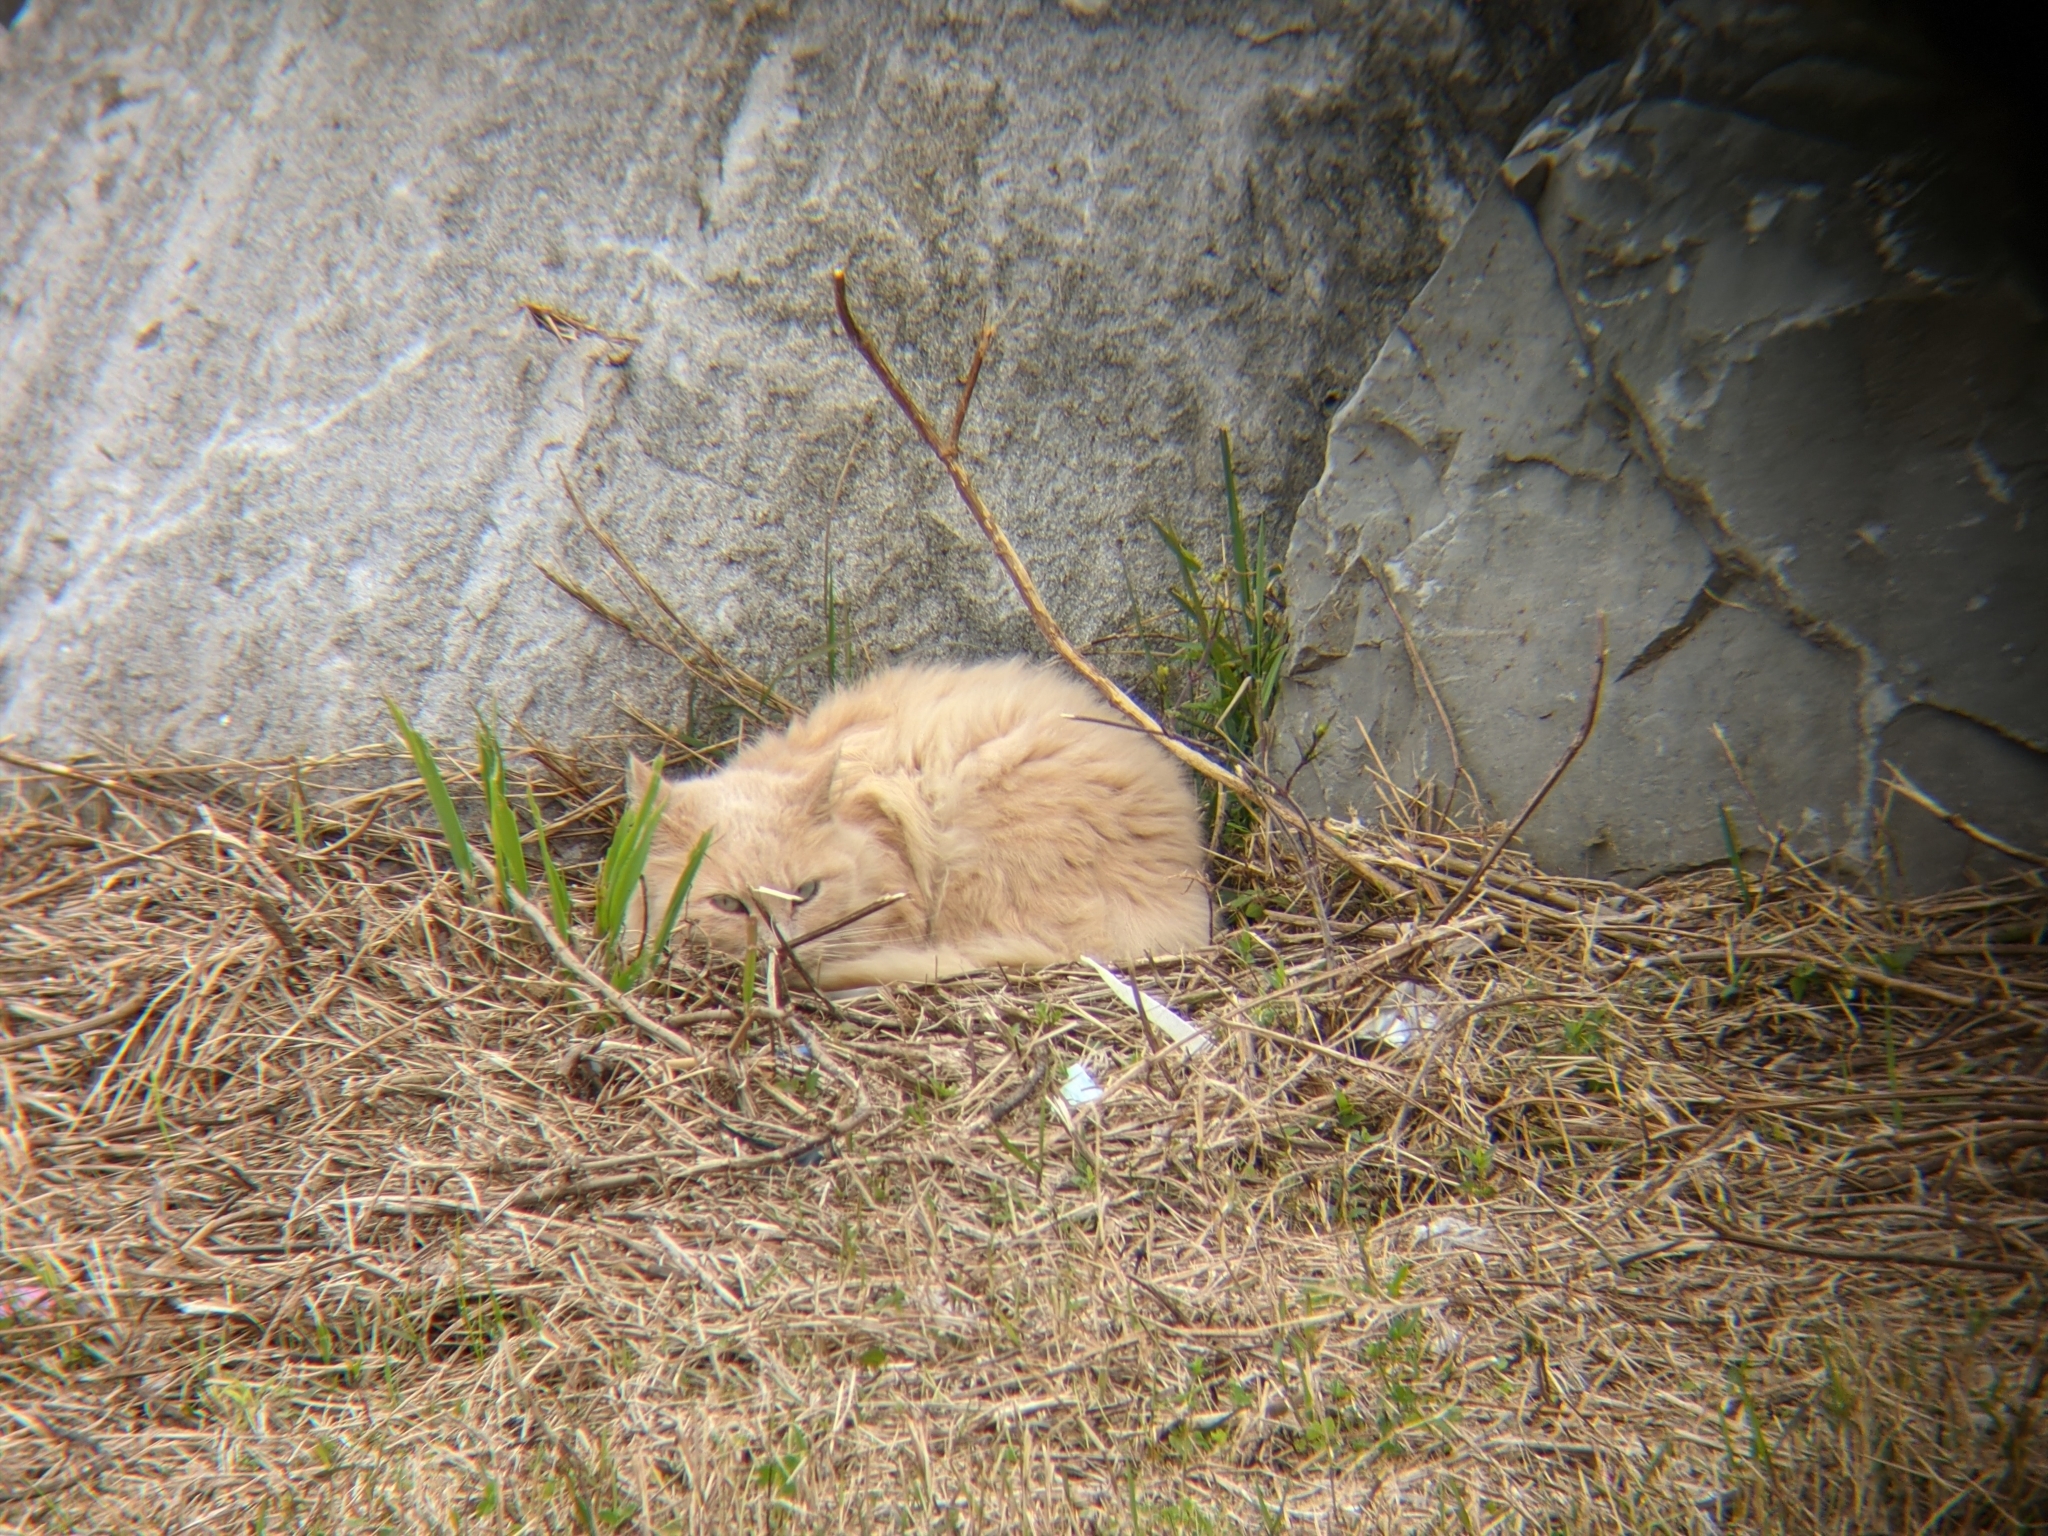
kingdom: Animalia
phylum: Chordata
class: Mammalia
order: Carnivora
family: Felidae
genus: Felis
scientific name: Felis catus
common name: Domestic cat
